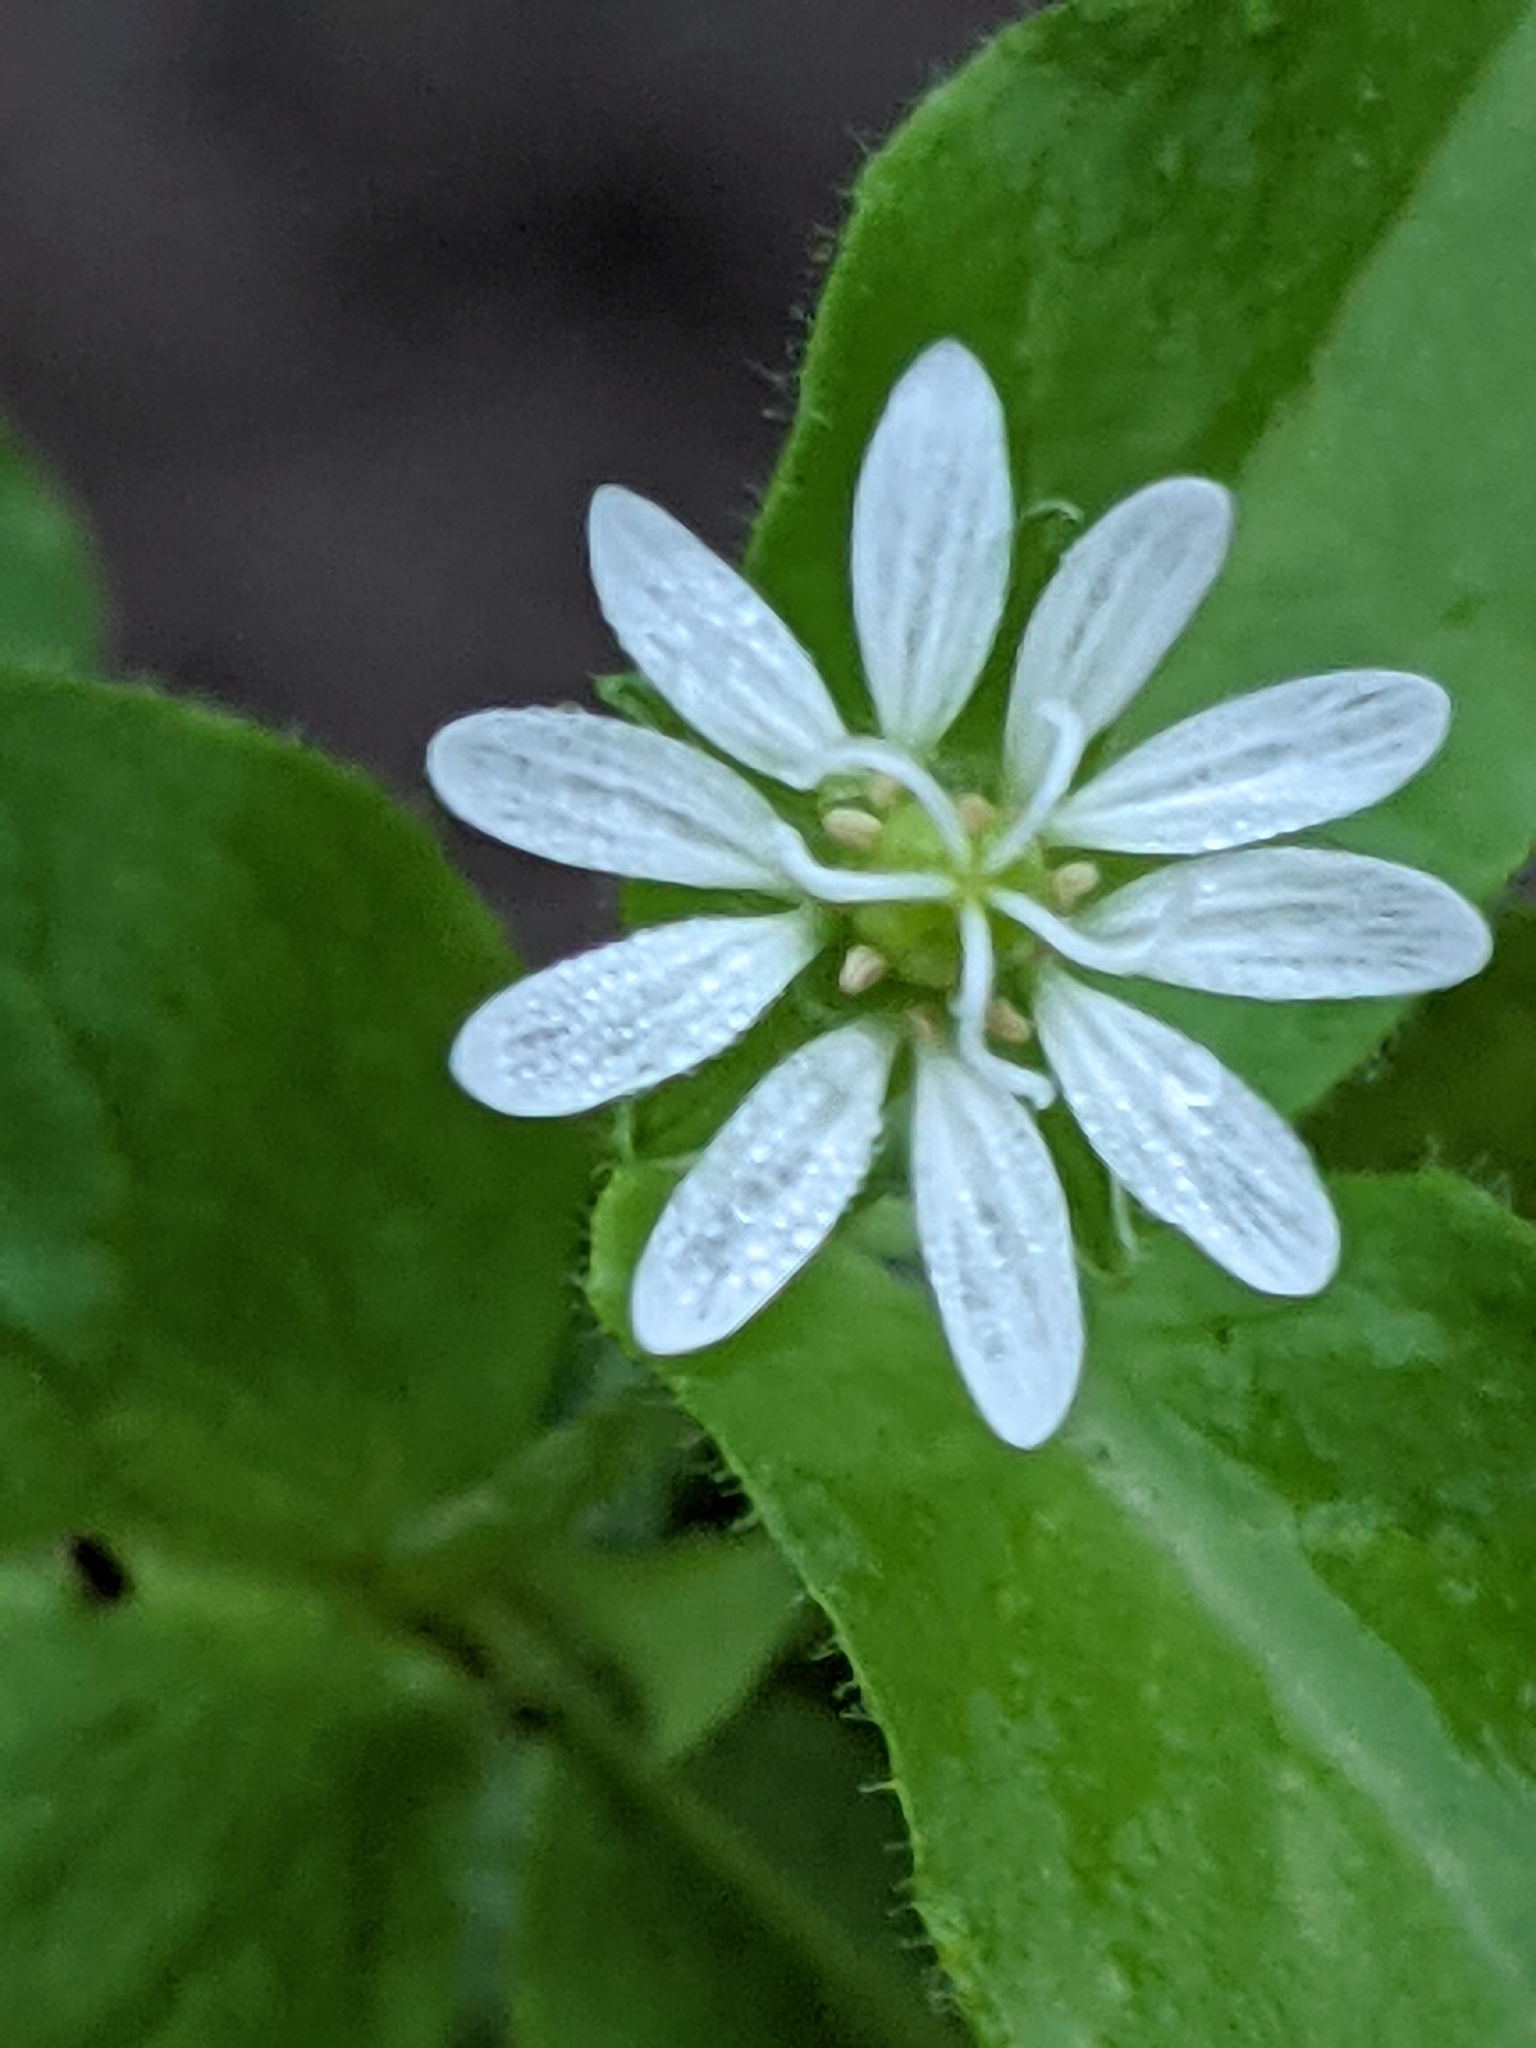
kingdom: Plantae
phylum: Tracheophyta
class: Magnoliopsida
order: Caryophyllales
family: Caryophyllaceae
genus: Stellaria
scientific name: Stellaria aquatica
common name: Water chickweed
